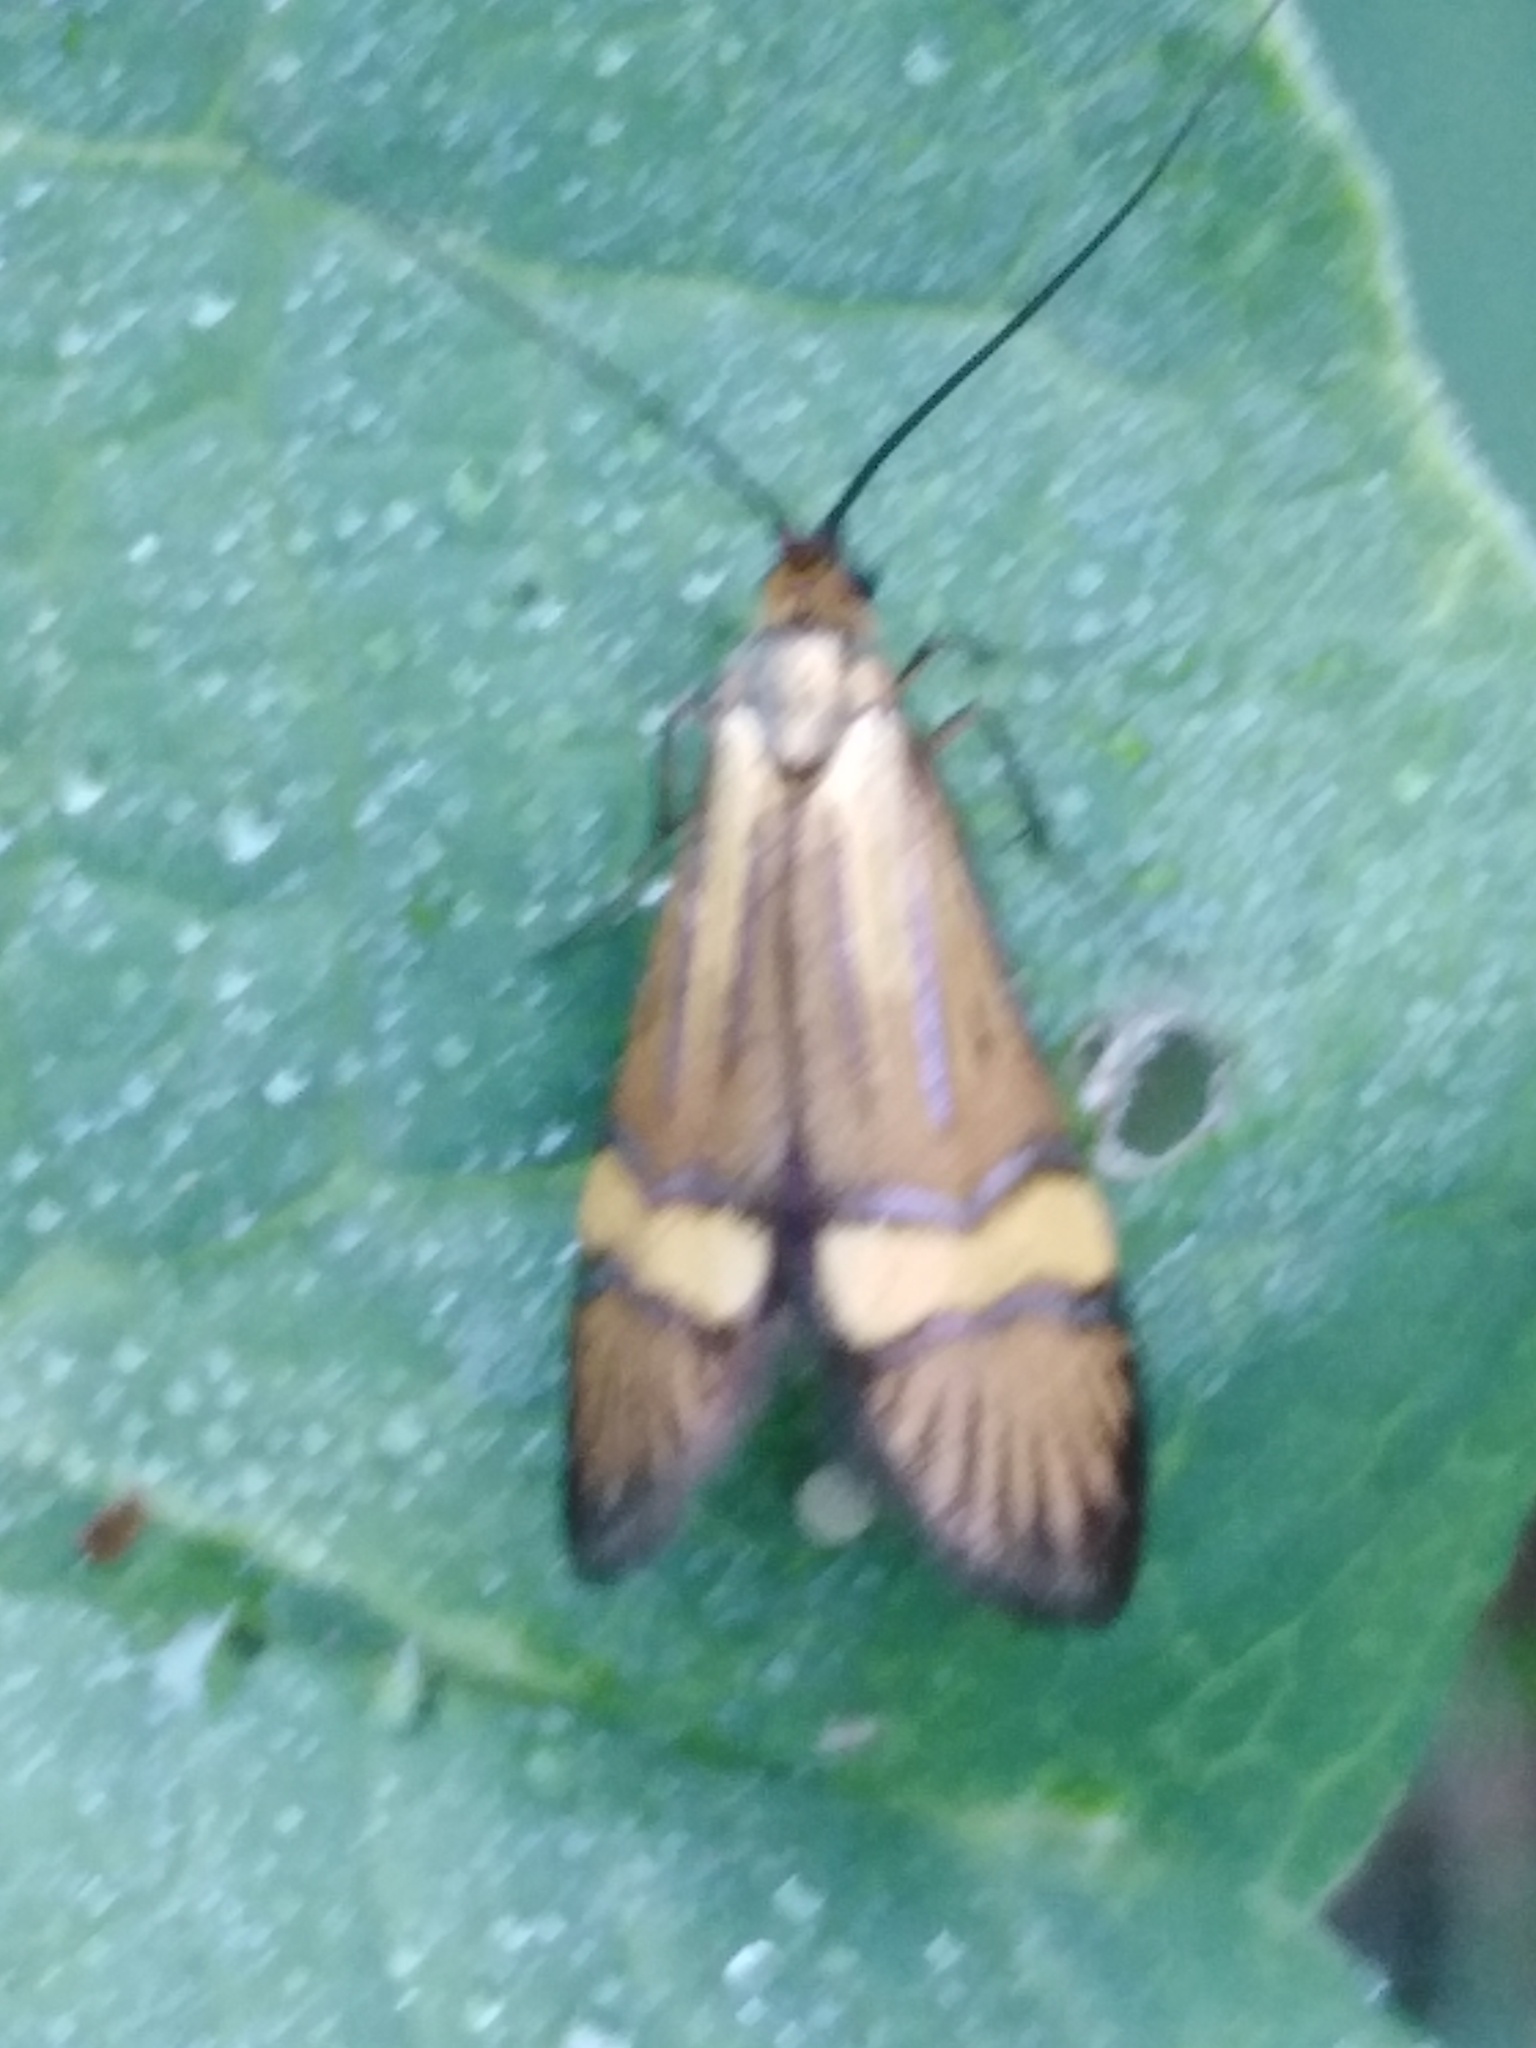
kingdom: Animalia
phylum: Arthropoda
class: Insecta
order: Lepidoptera
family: Adelidae
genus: Nemophora
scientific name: Nemophora
